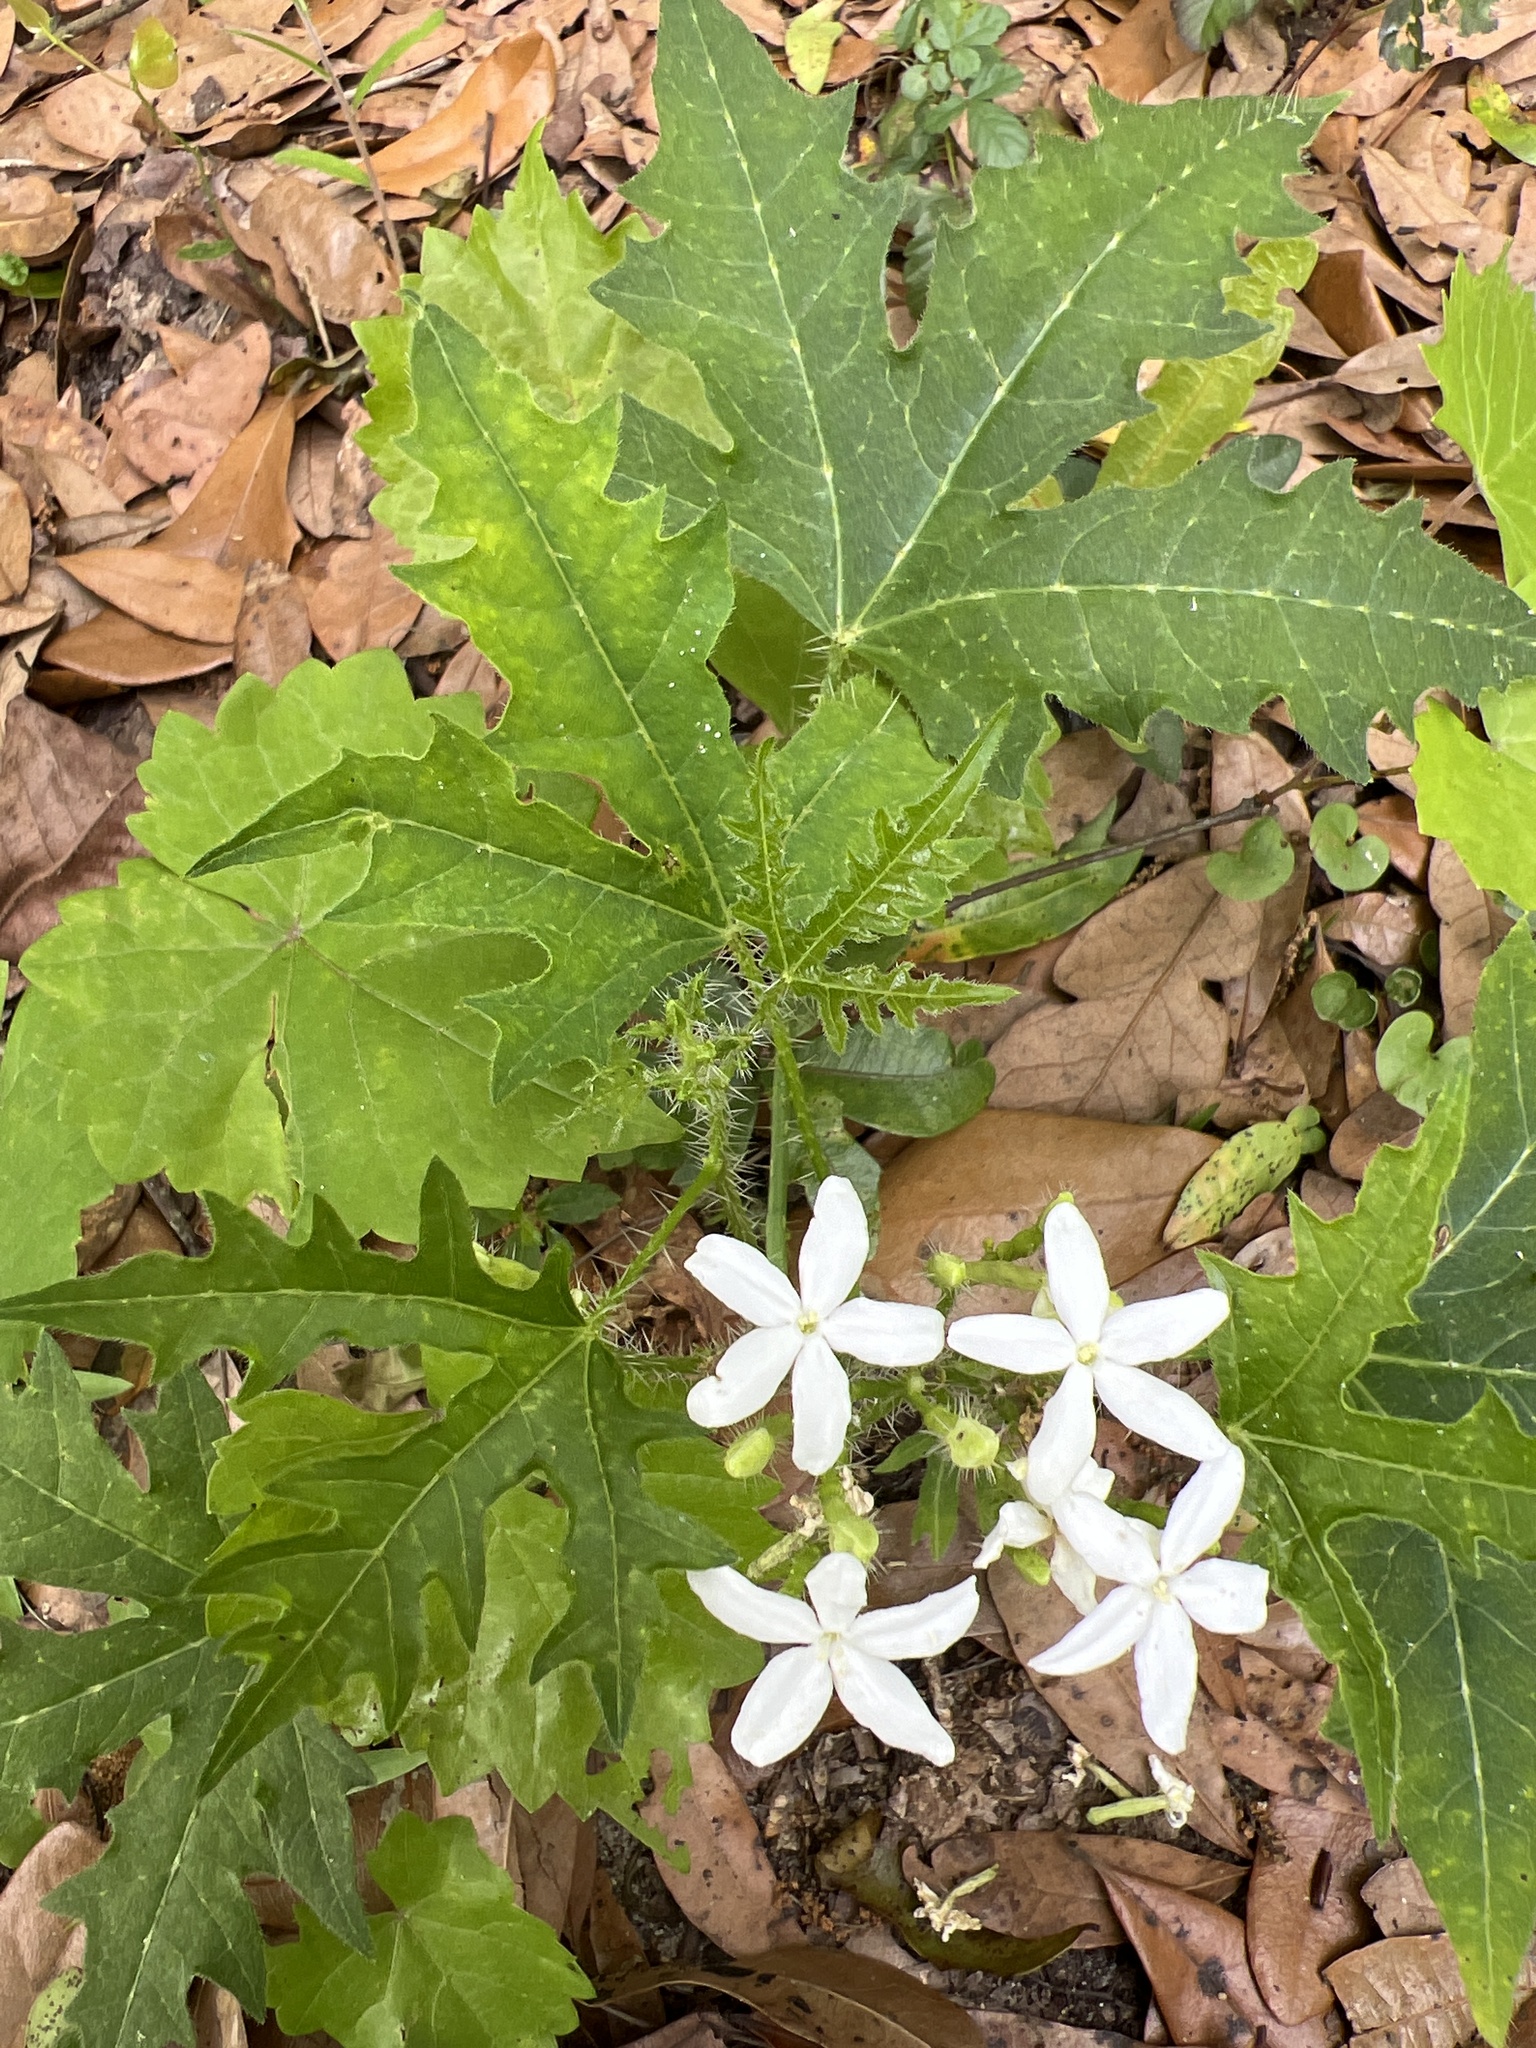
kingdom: Plantae
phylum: Tracheophyta
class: Magnoliopsida
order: Malpighiales
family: Euphorbiaceae
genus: Cnidoscolus
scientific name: Cnidoscolus stimulosus
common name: Bull-nettle
